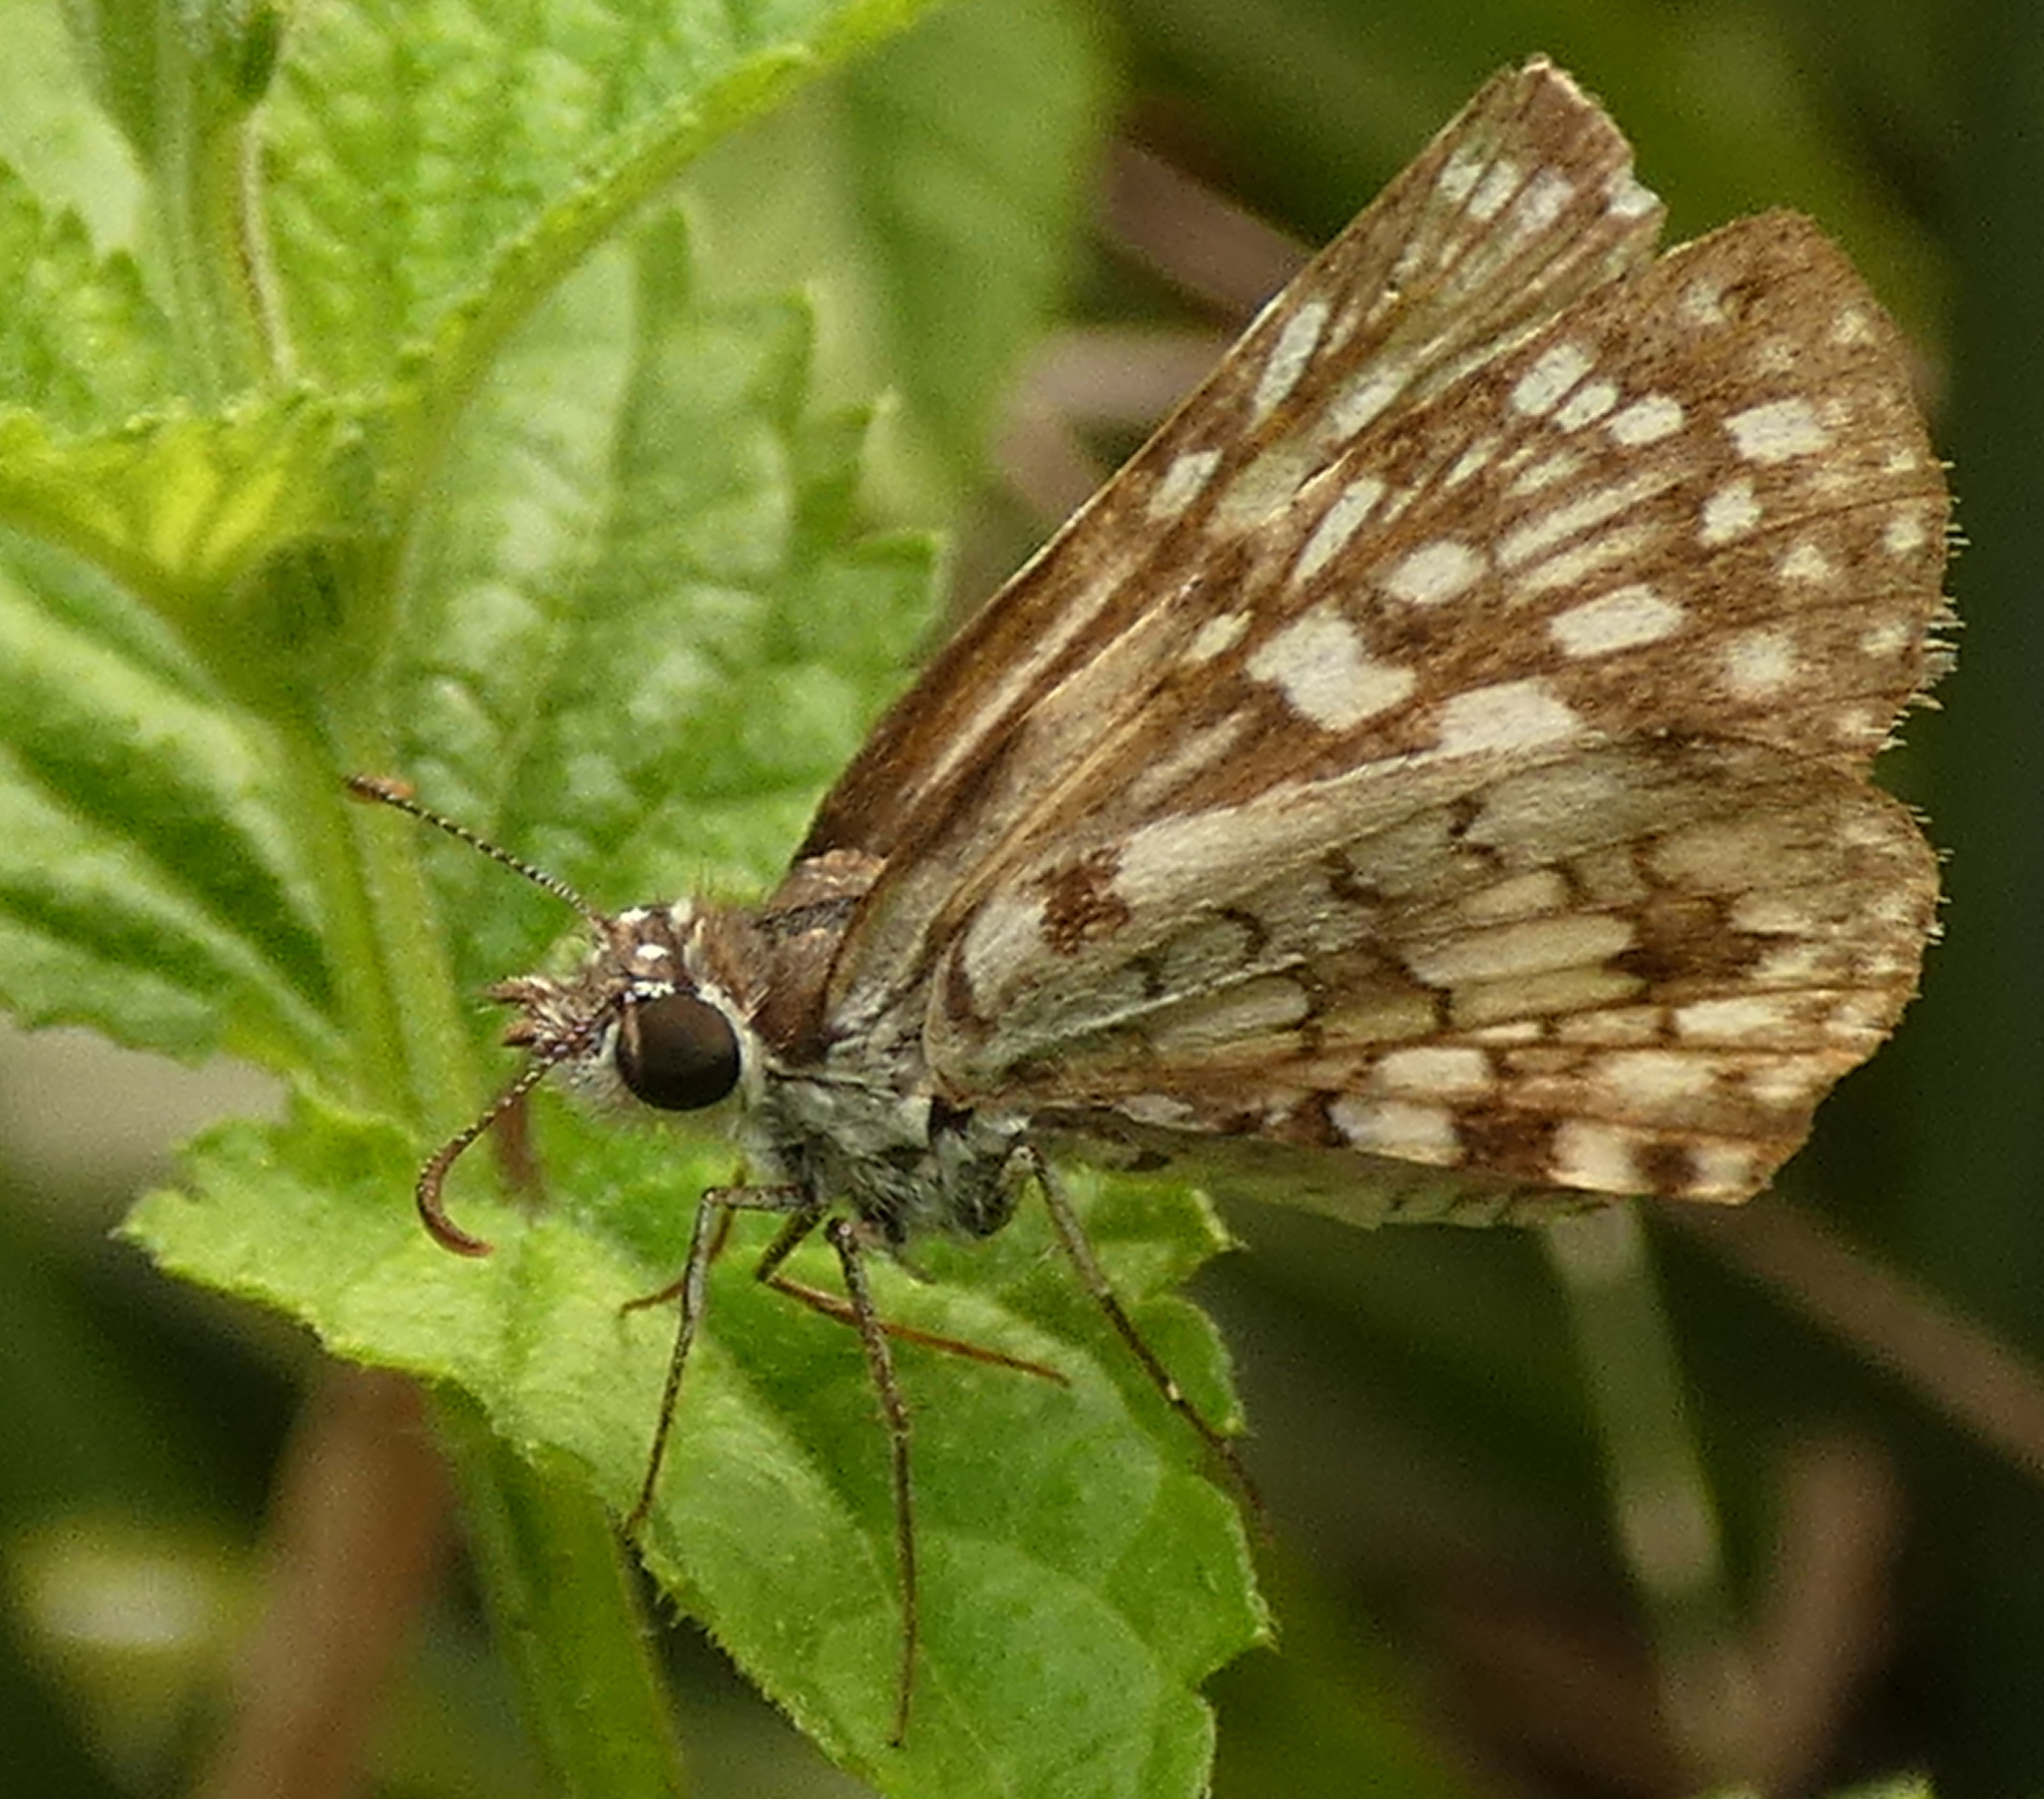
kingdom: Animalia
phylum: Arthropoda
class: Insecta
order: Lepidoptera
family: Hesperiidae
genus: Pyrgus
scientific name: Pyrgus oileus
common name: Tropical checkered-skipper
